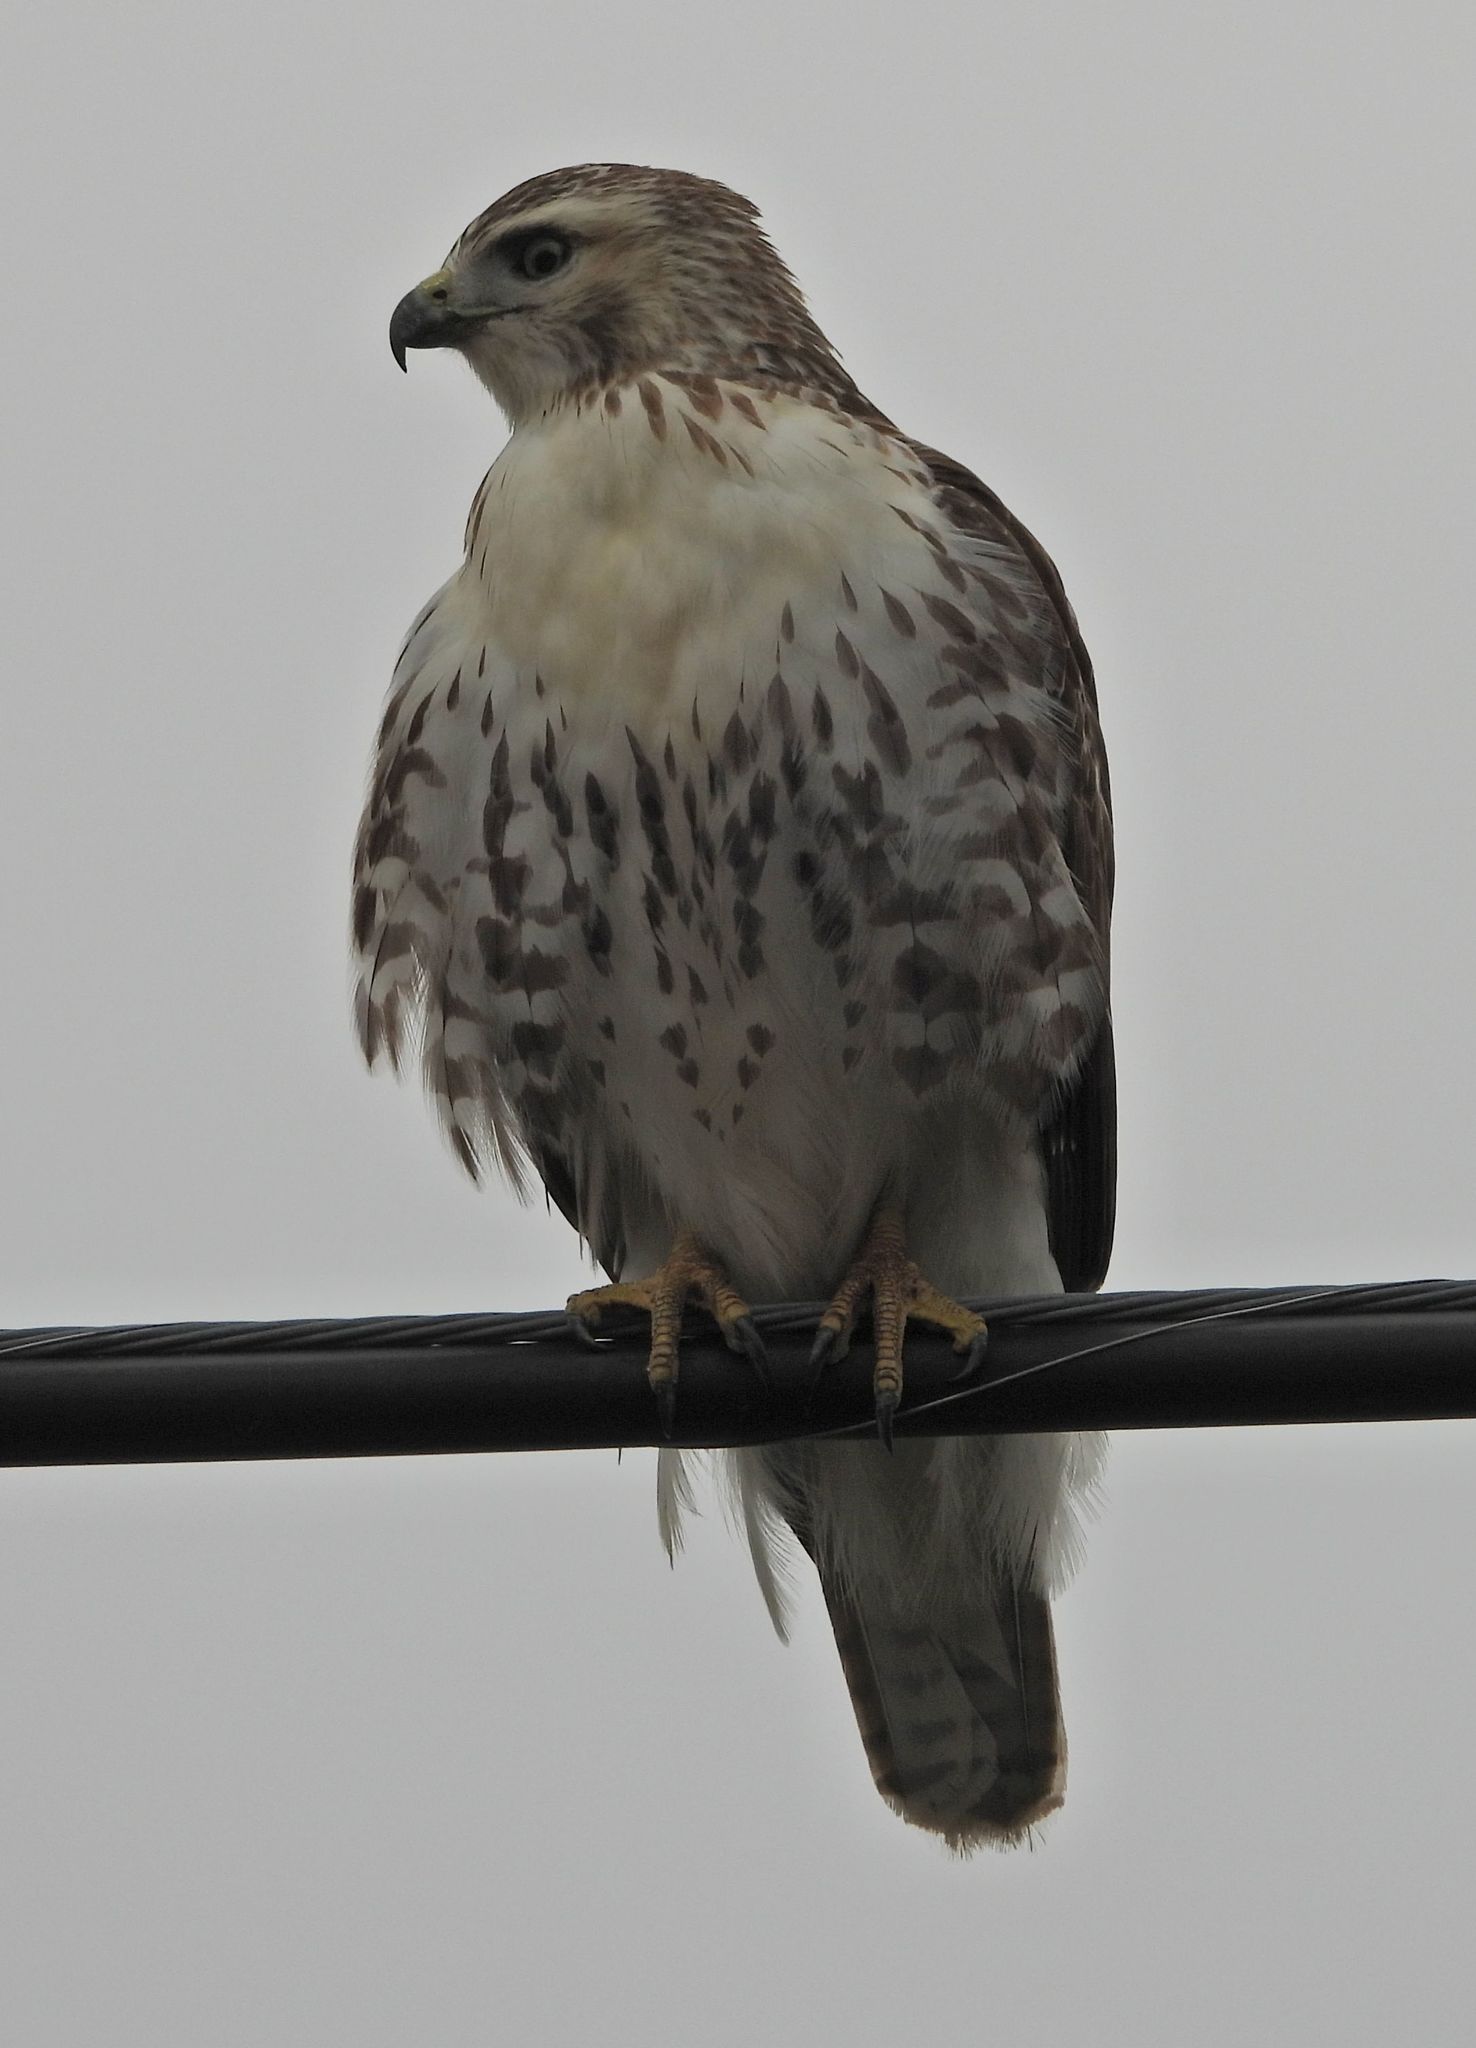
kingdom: Animalia
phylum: Chordata
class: Aves
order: Accipitriformes
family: Accipitridae
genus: Buteo
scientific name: Buteo jamaicensis
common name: Red-tailed hawk
